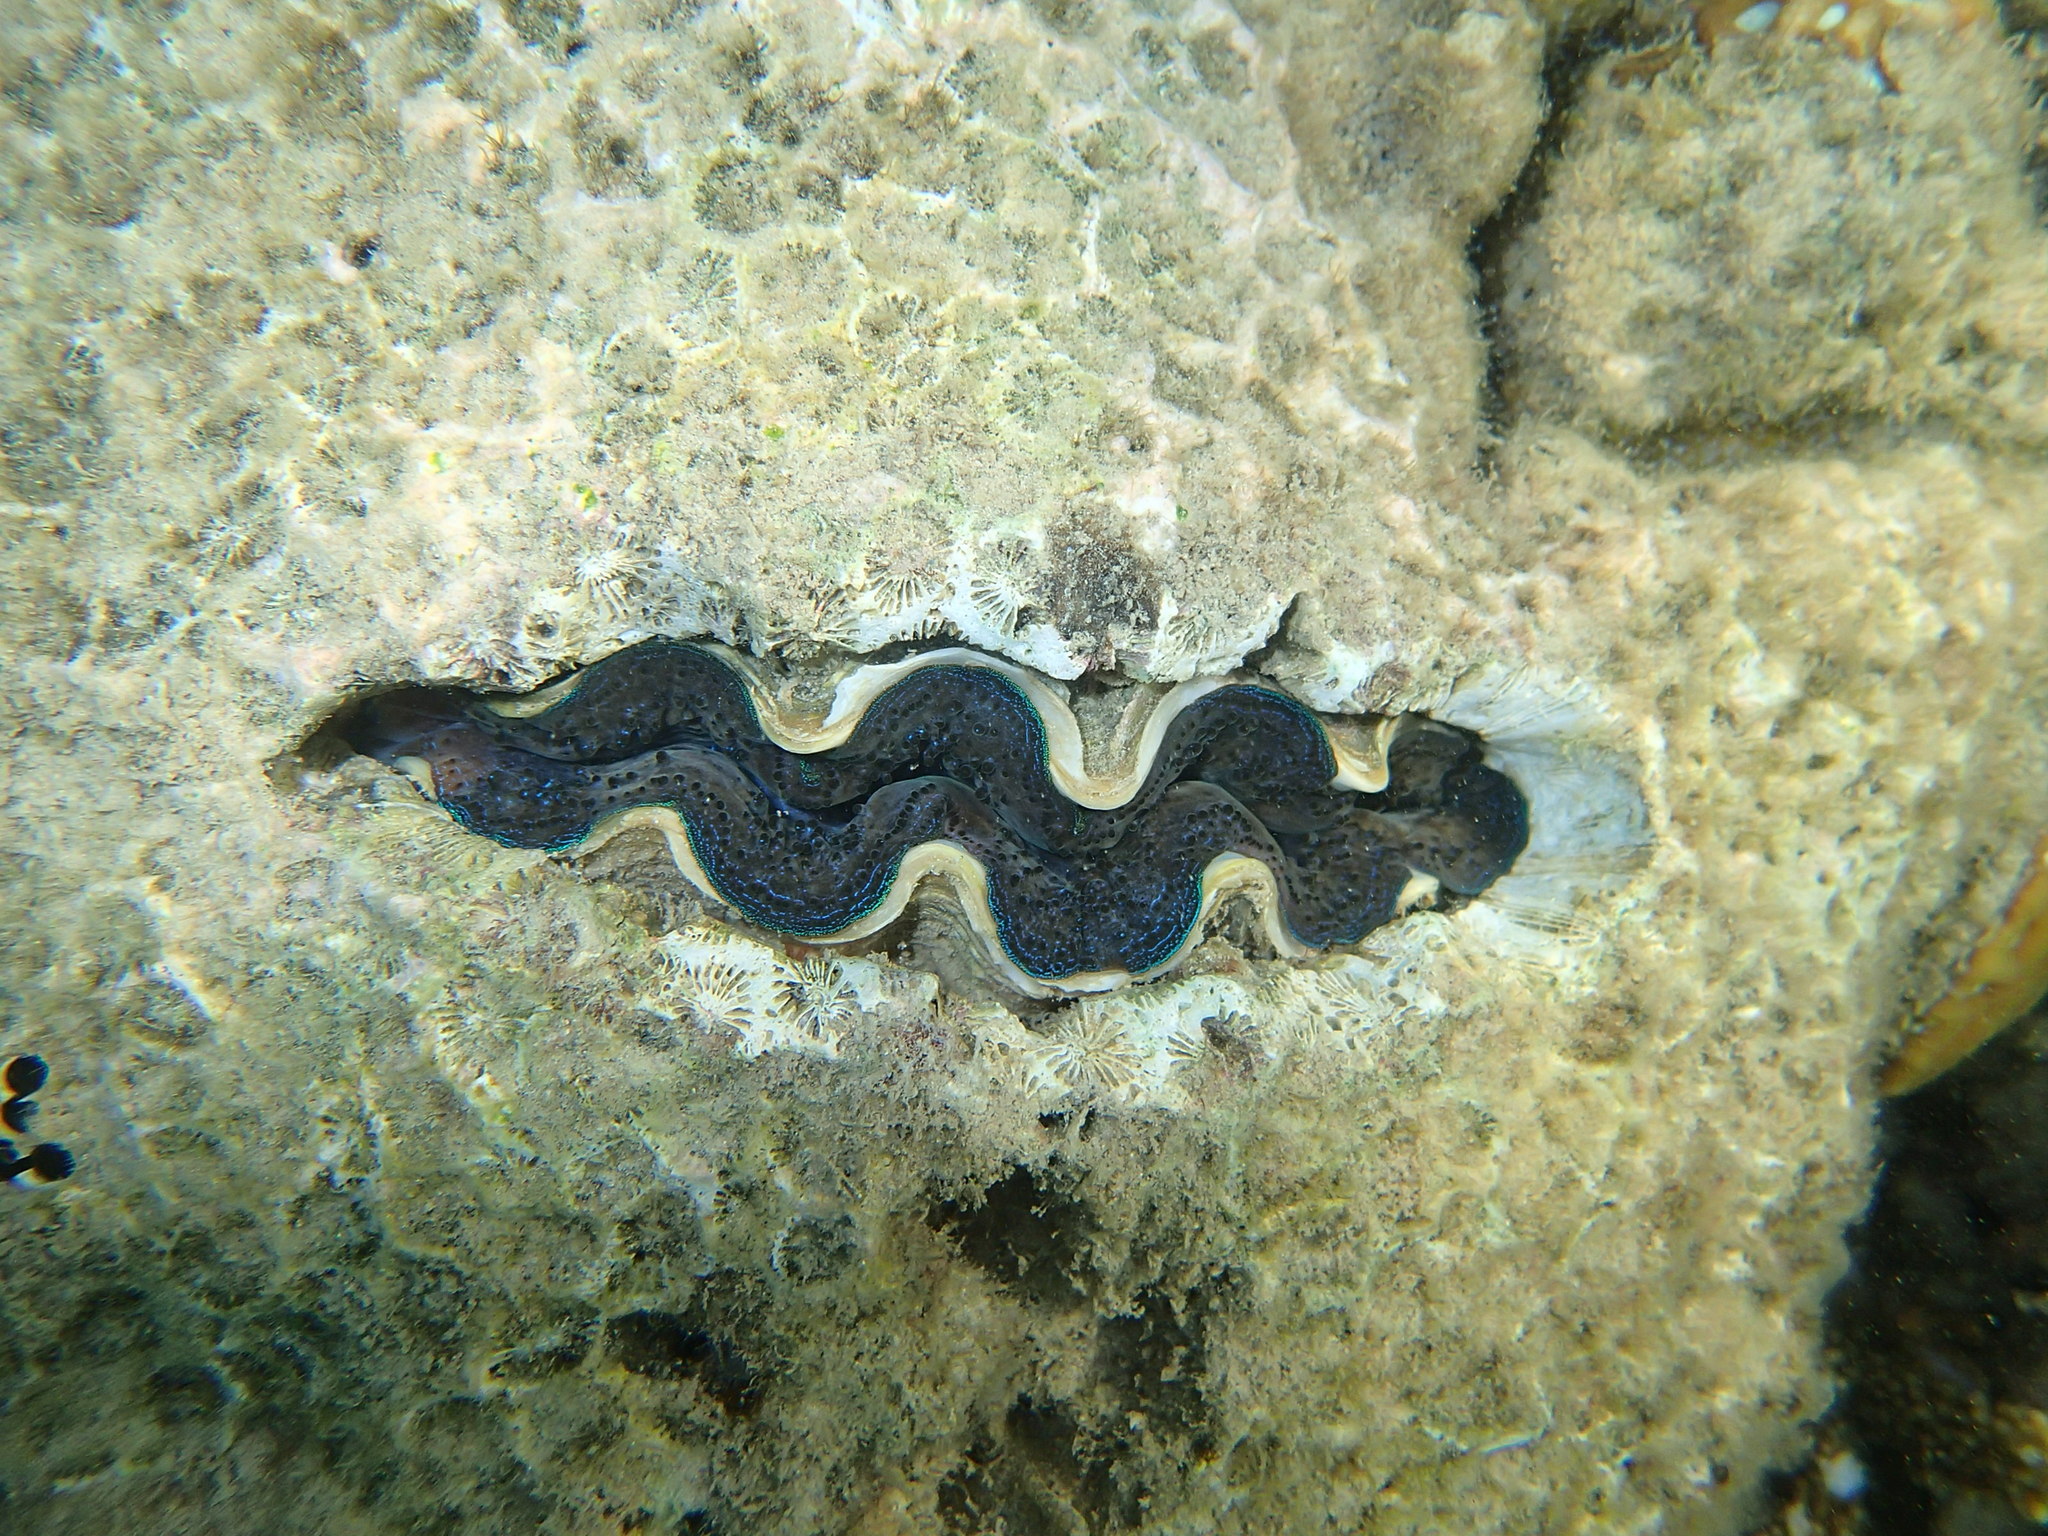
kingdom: Animalia
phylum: Mollusca
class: Bivalvia
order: Cardiida
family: Cardiidae
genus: Tridacna
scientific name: Tridacna crocea
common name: Boring clam
